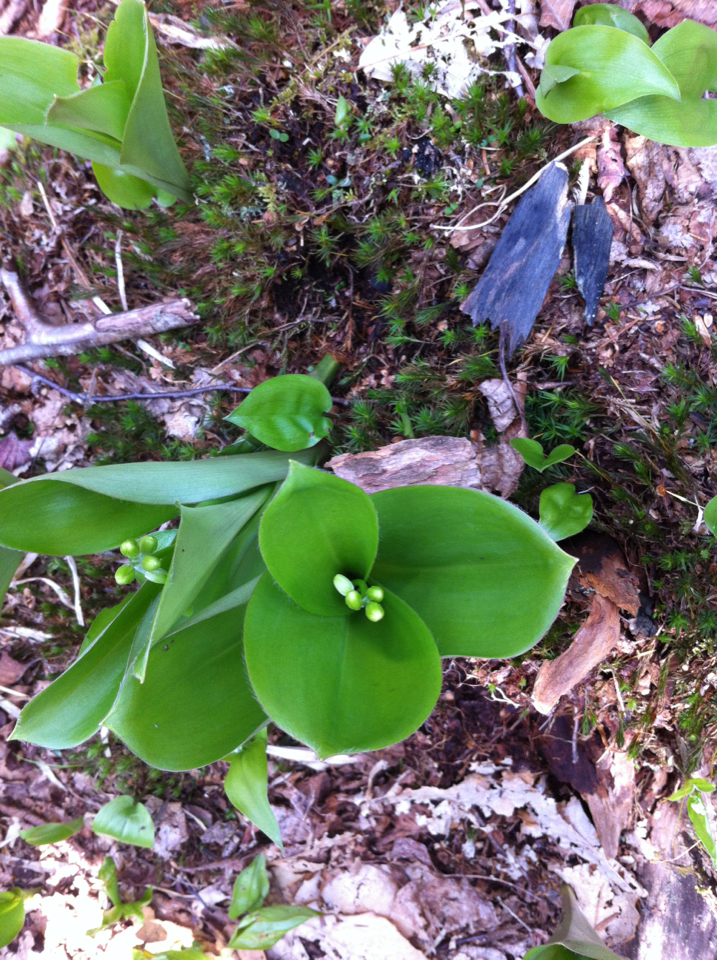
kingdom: Plantae
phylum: Tracheophyta
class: Liliopsida
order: Liliales
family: Liliaceae
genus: Clintonia
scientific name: Clintonia borealis
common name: Yellow clintonia
